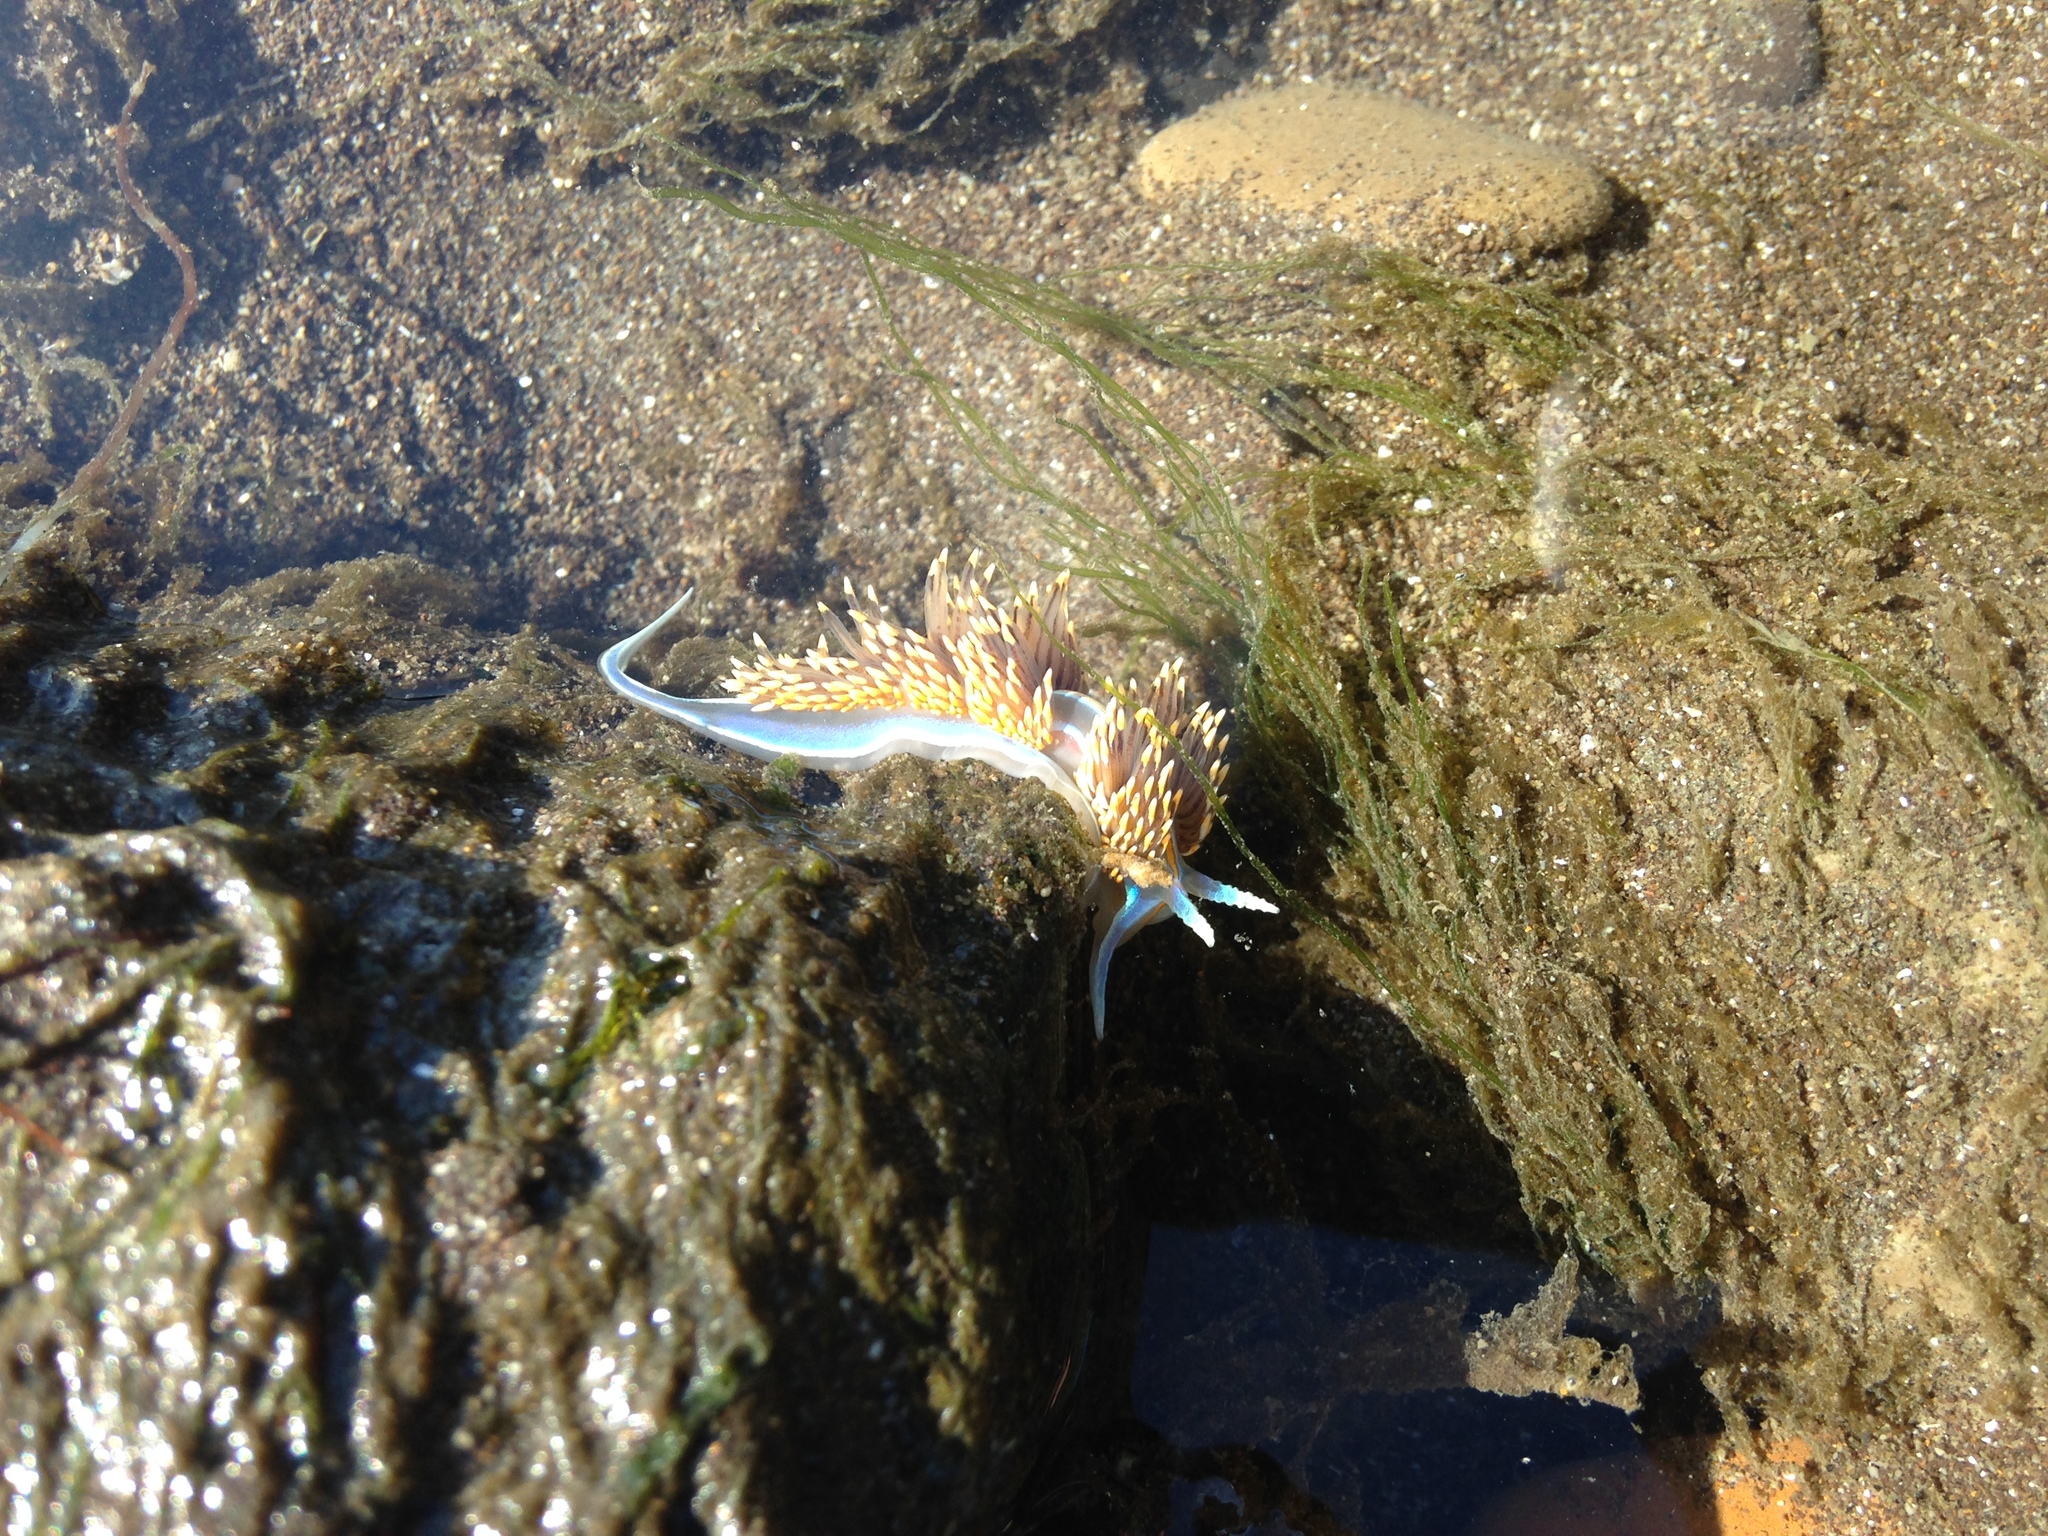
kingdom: Animalia
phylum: Mollusca
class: Gastropoda
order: Nudibranchia
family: Myrrhinidae
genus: Hermissenda
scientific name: Hermissenda opalescens
